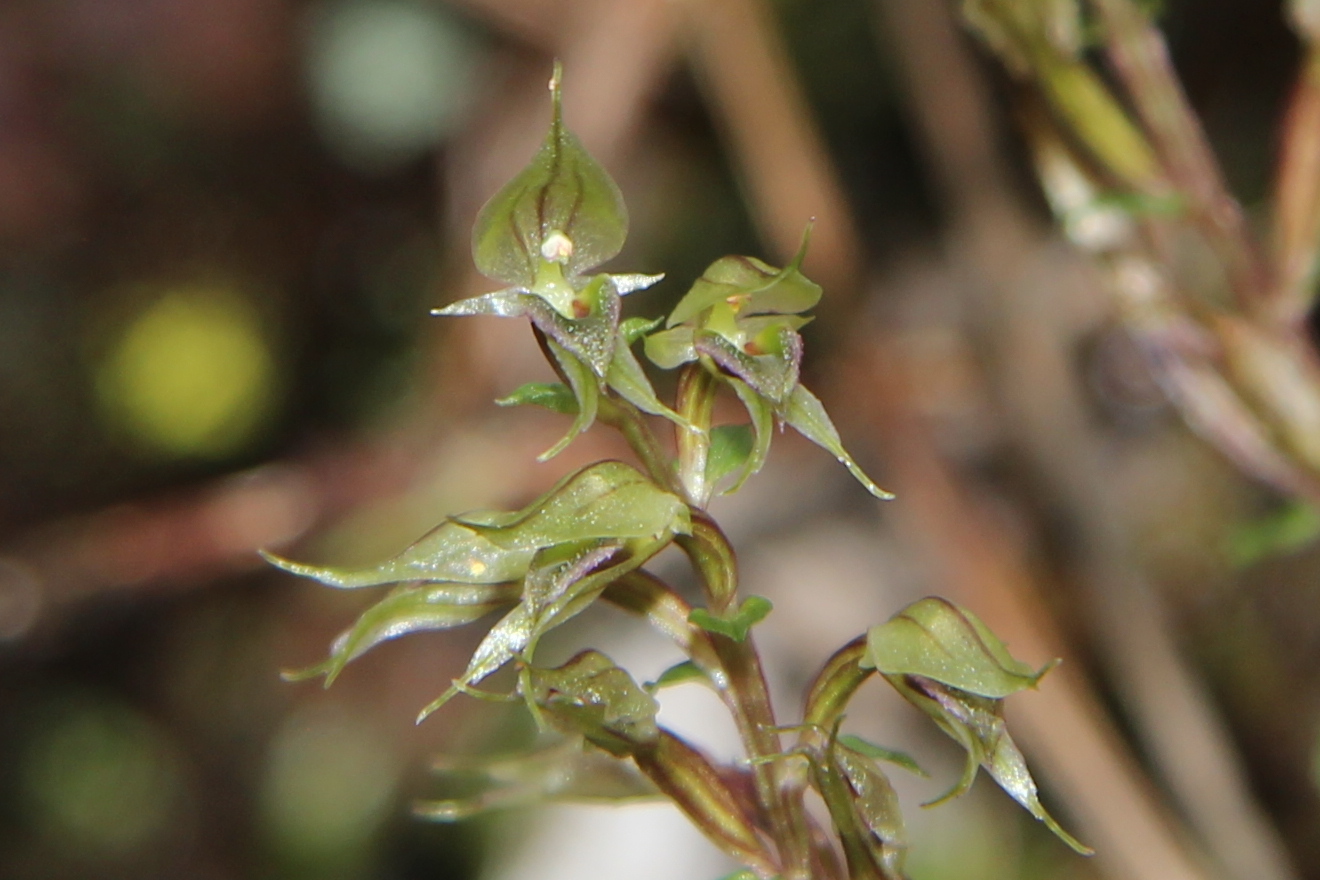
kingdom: Plantae
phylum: Tracheophyta
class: Liliopsida
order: Asparagales
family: Orchidaceae
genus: Acianthus
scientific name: Acianthus sinclairii
